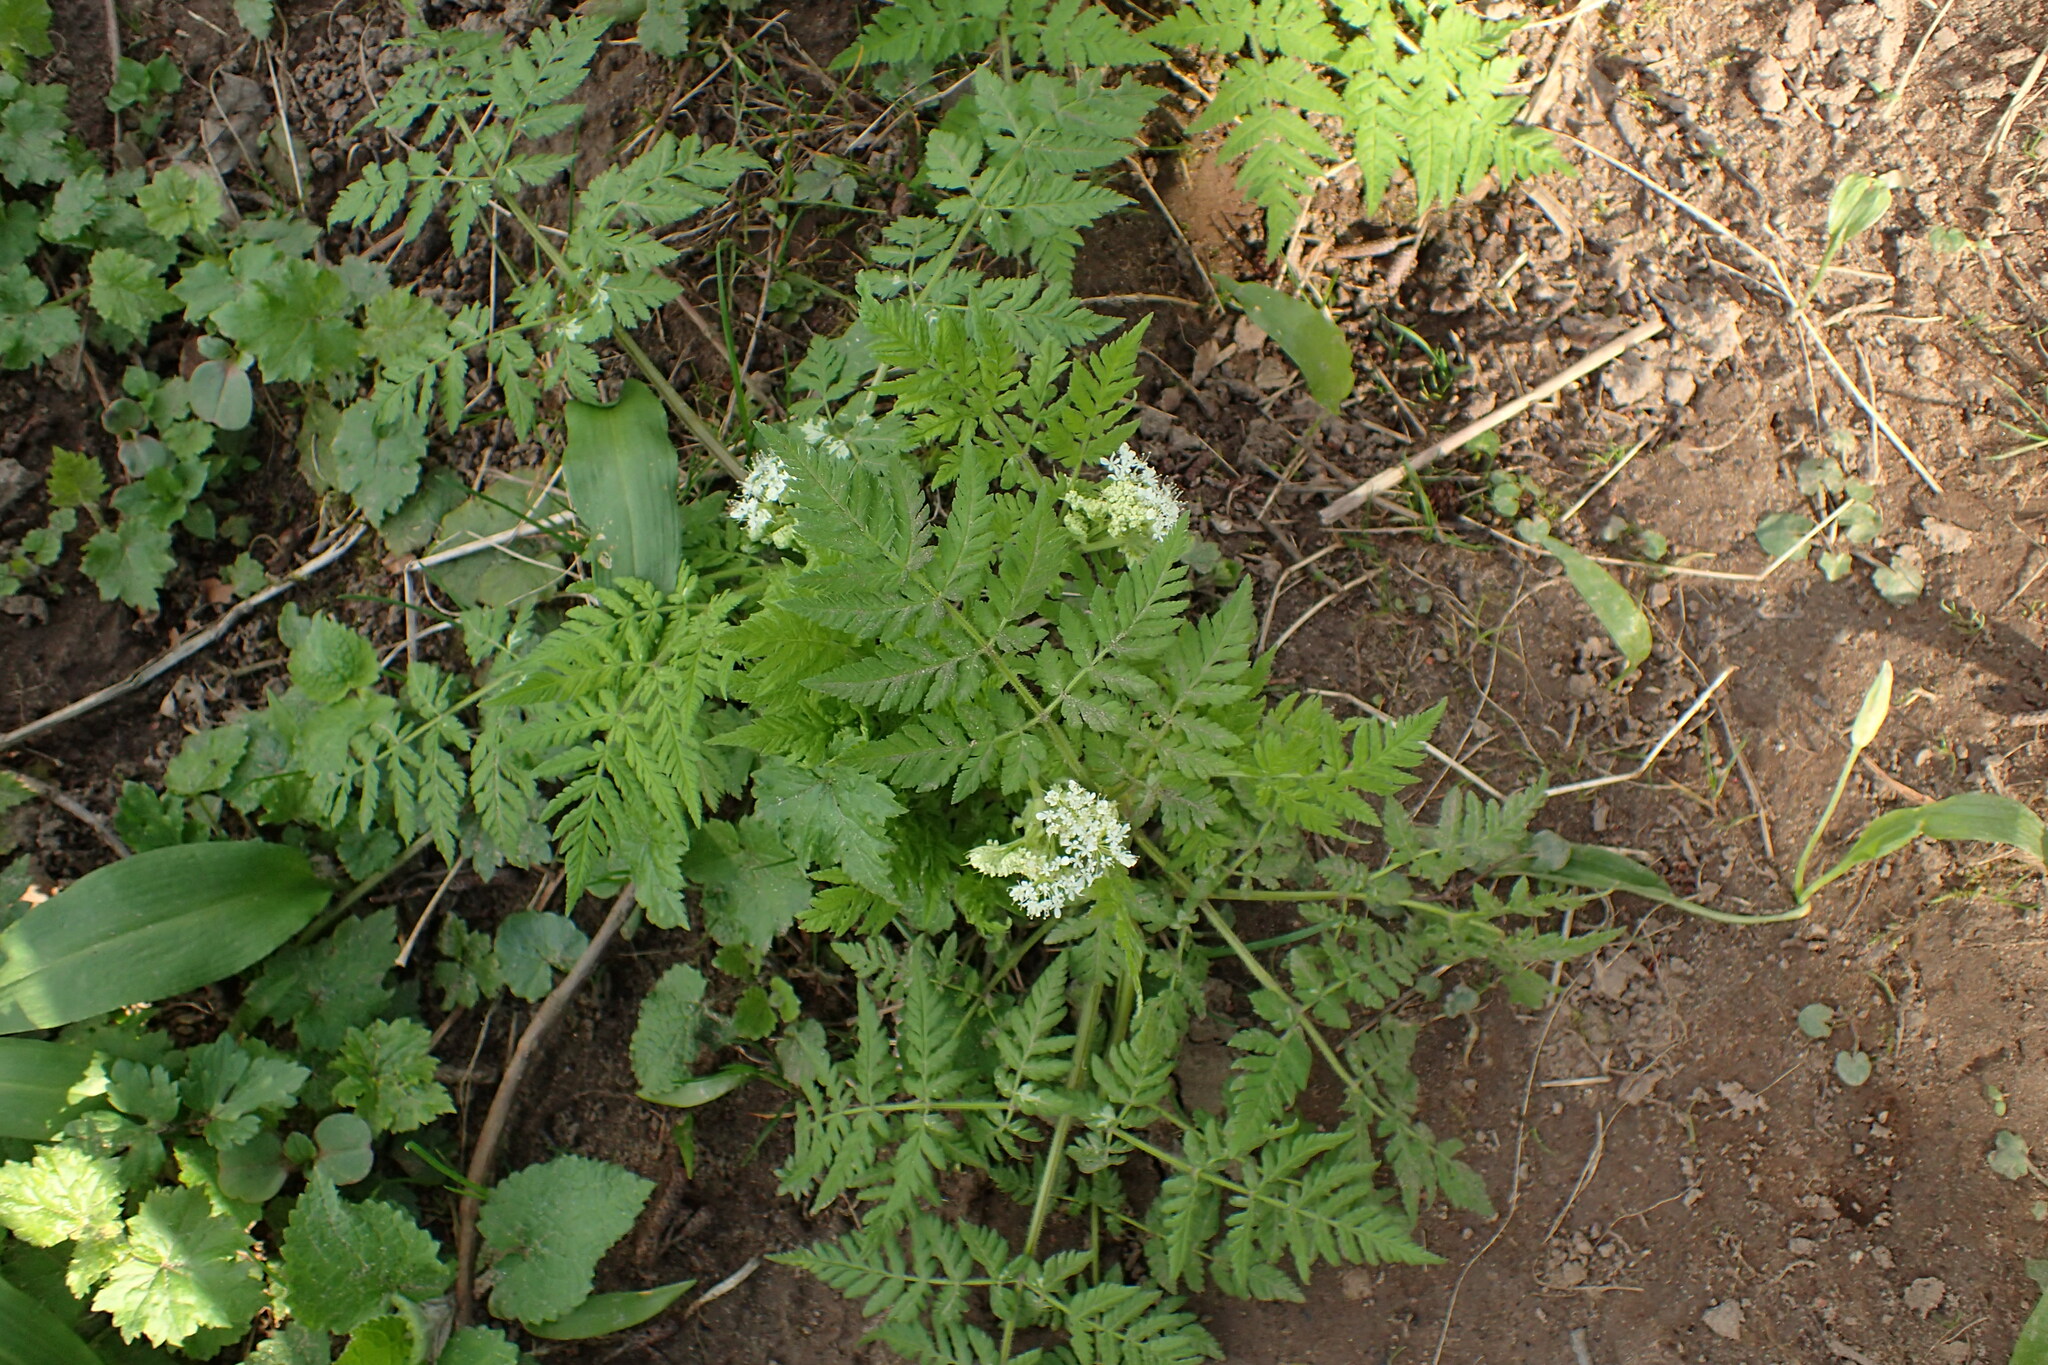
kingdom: Plantae
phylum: Tracheophyta
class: Magnoliopsida
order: Apiales
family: Apiaceae
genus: Anthriscus
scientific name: Anthriscus sylvestris
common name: Cow parsley
